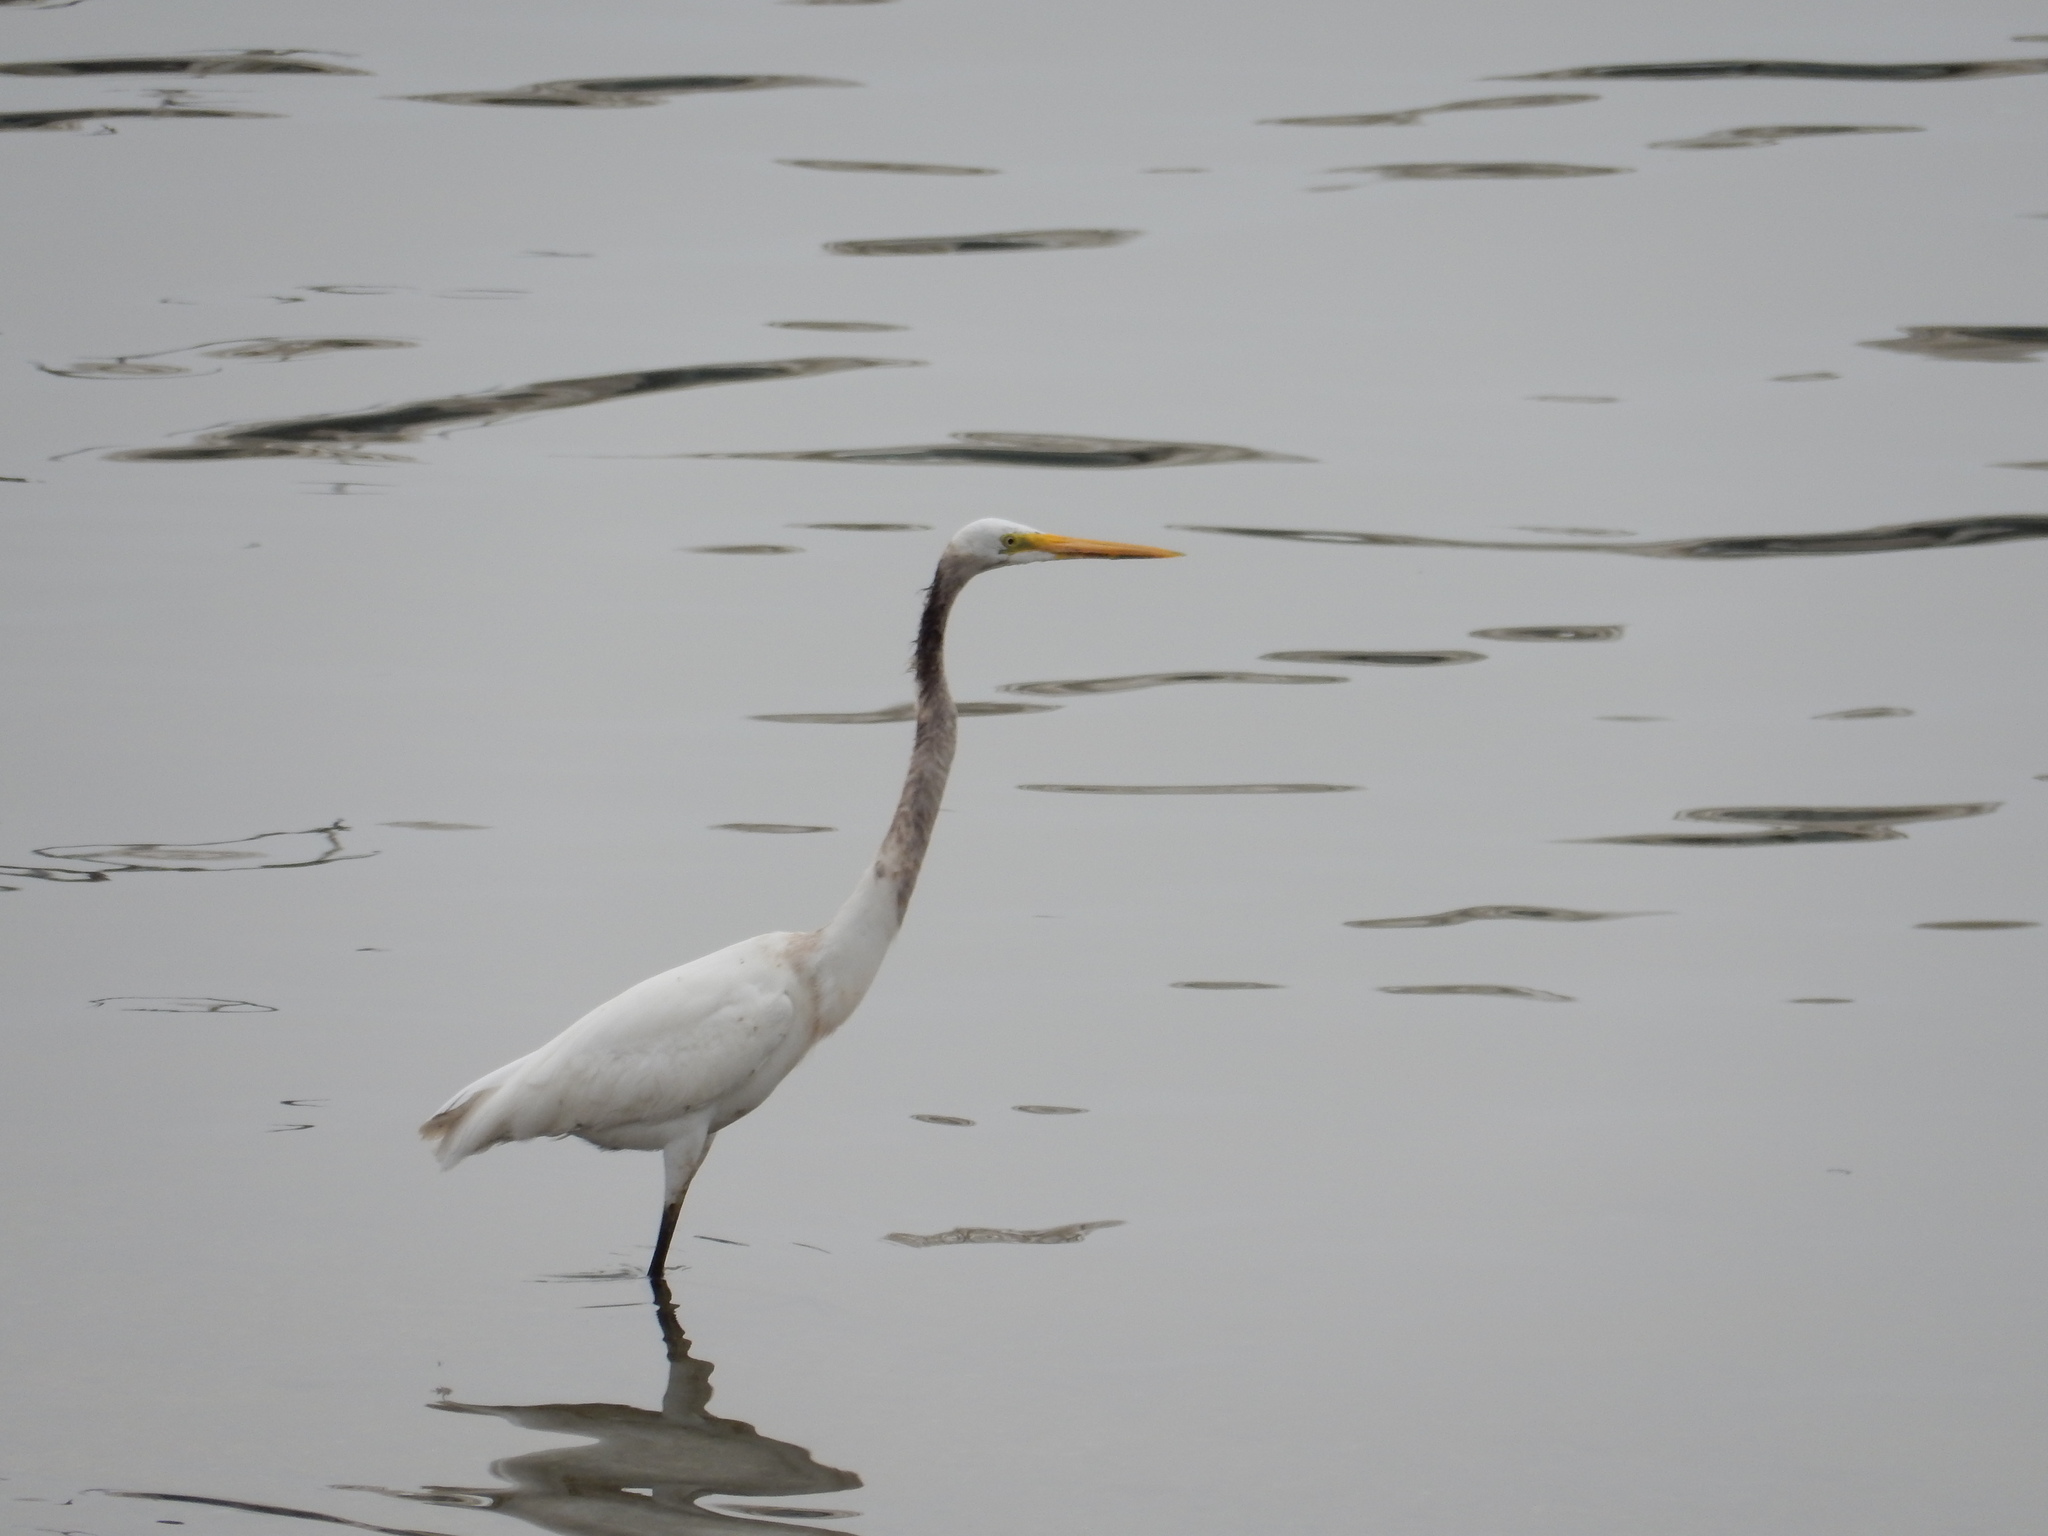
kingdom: Animalia
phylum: Chordata
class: Aves
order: Pelecaniformes
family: Ardeidae
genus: Ardea
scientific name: Ardea alba
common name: Great egret
